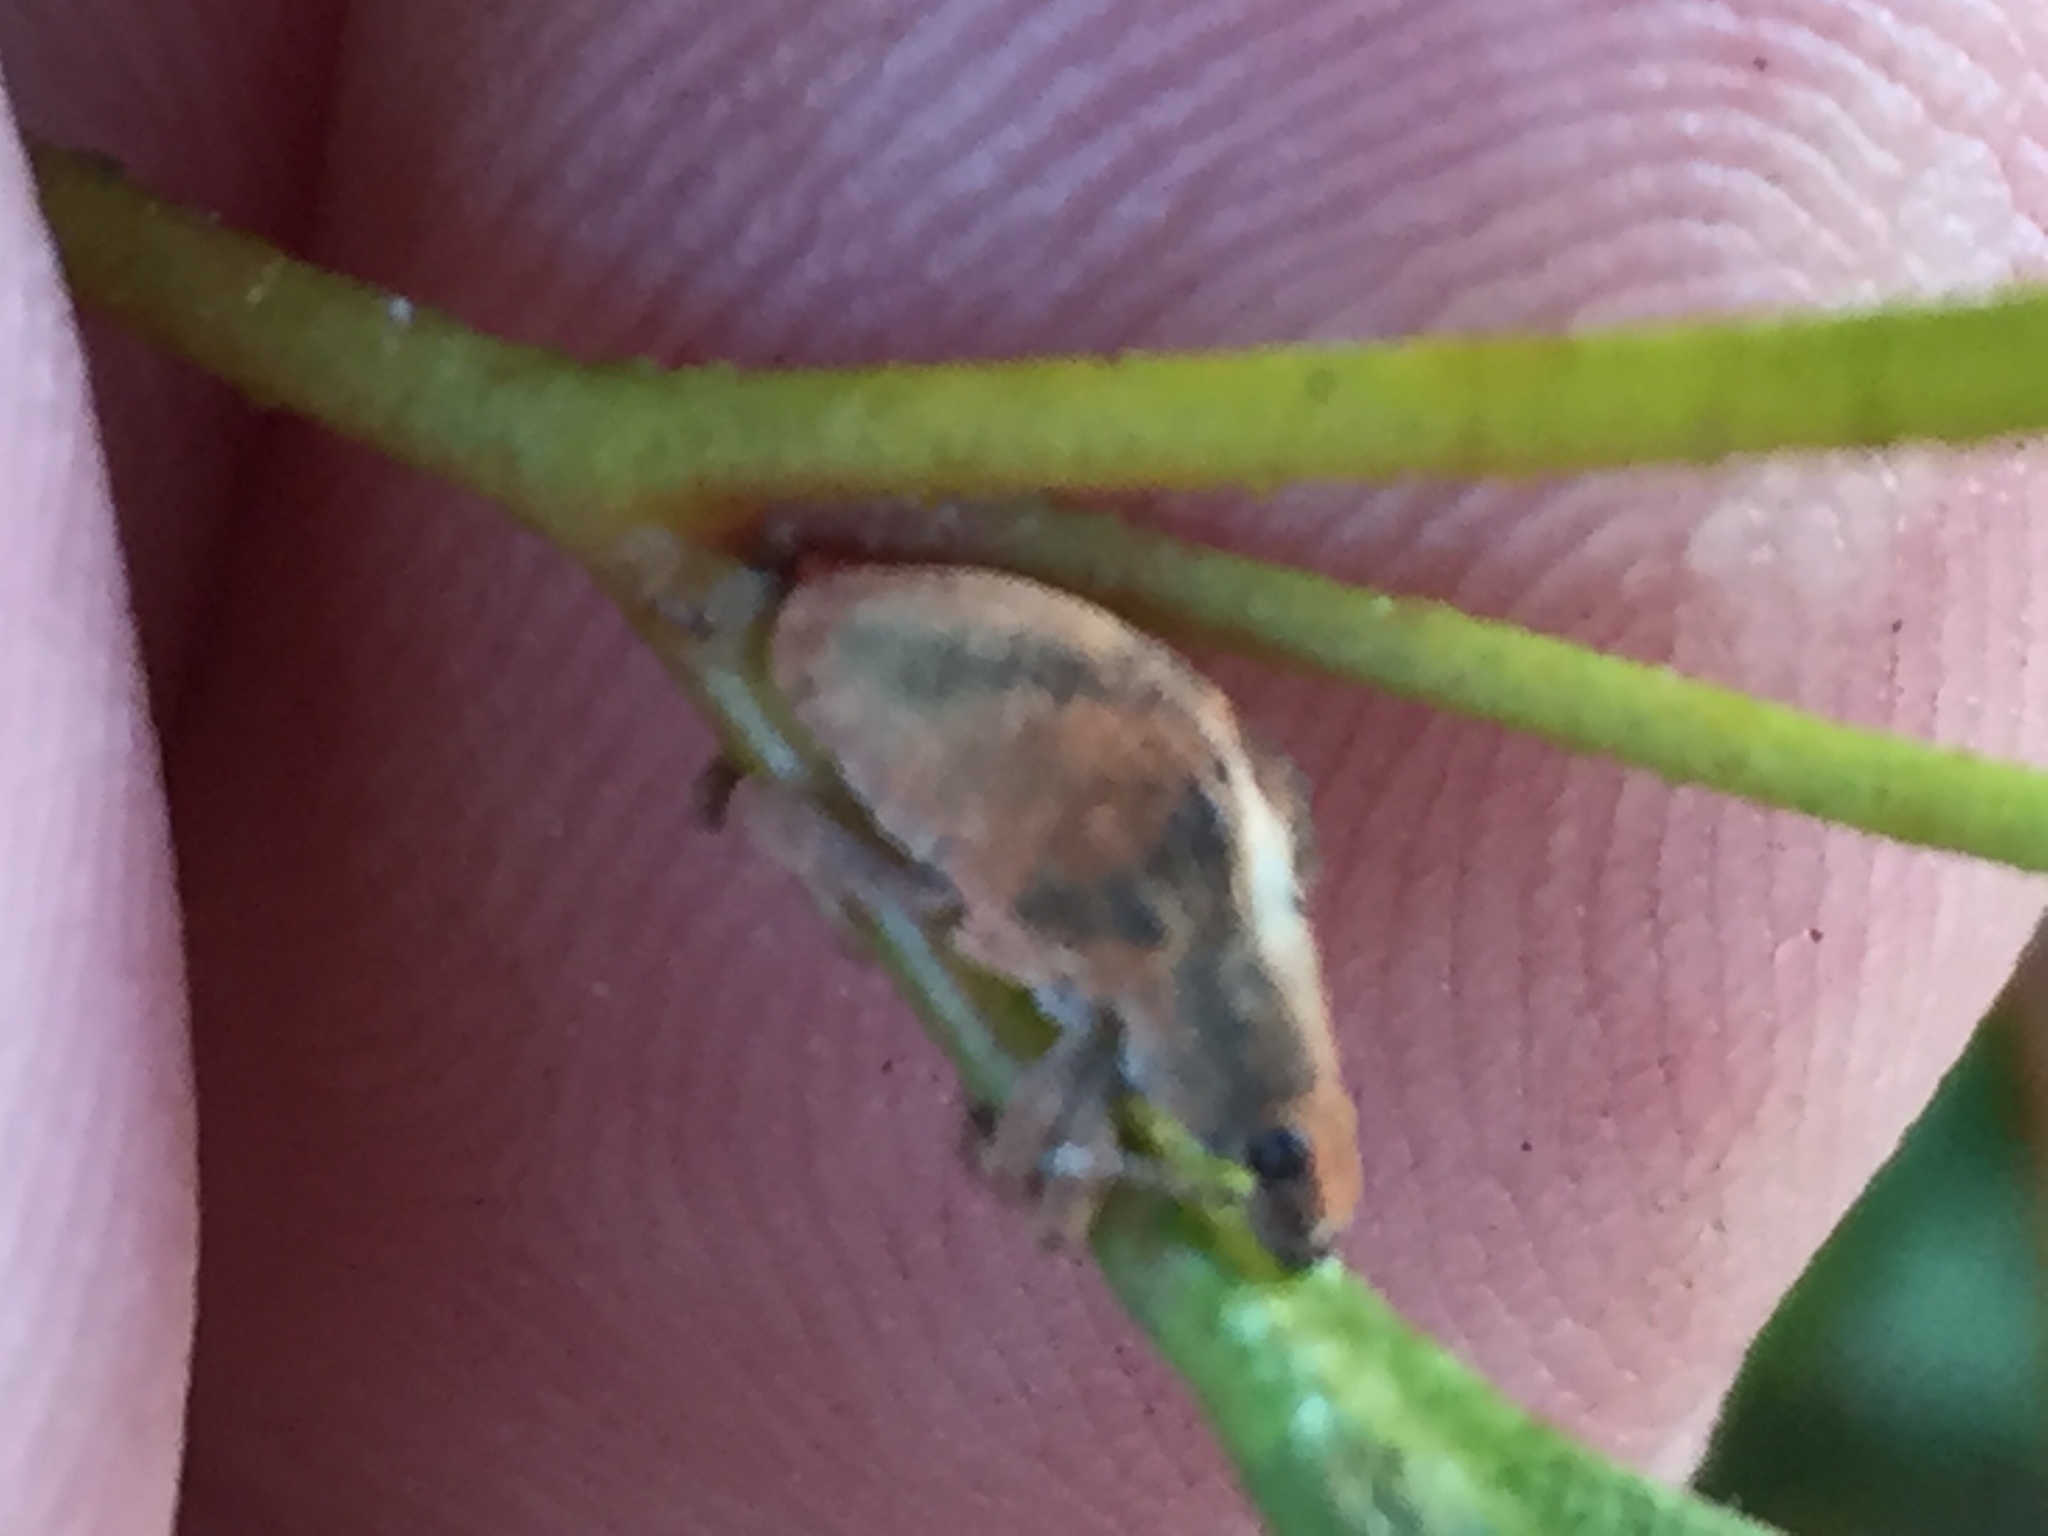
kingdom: Animalia
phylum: Arthropoda
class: Insecta
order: Coleoptera
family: Curculionidae
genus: Gonipterus
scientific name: Gonipterus
